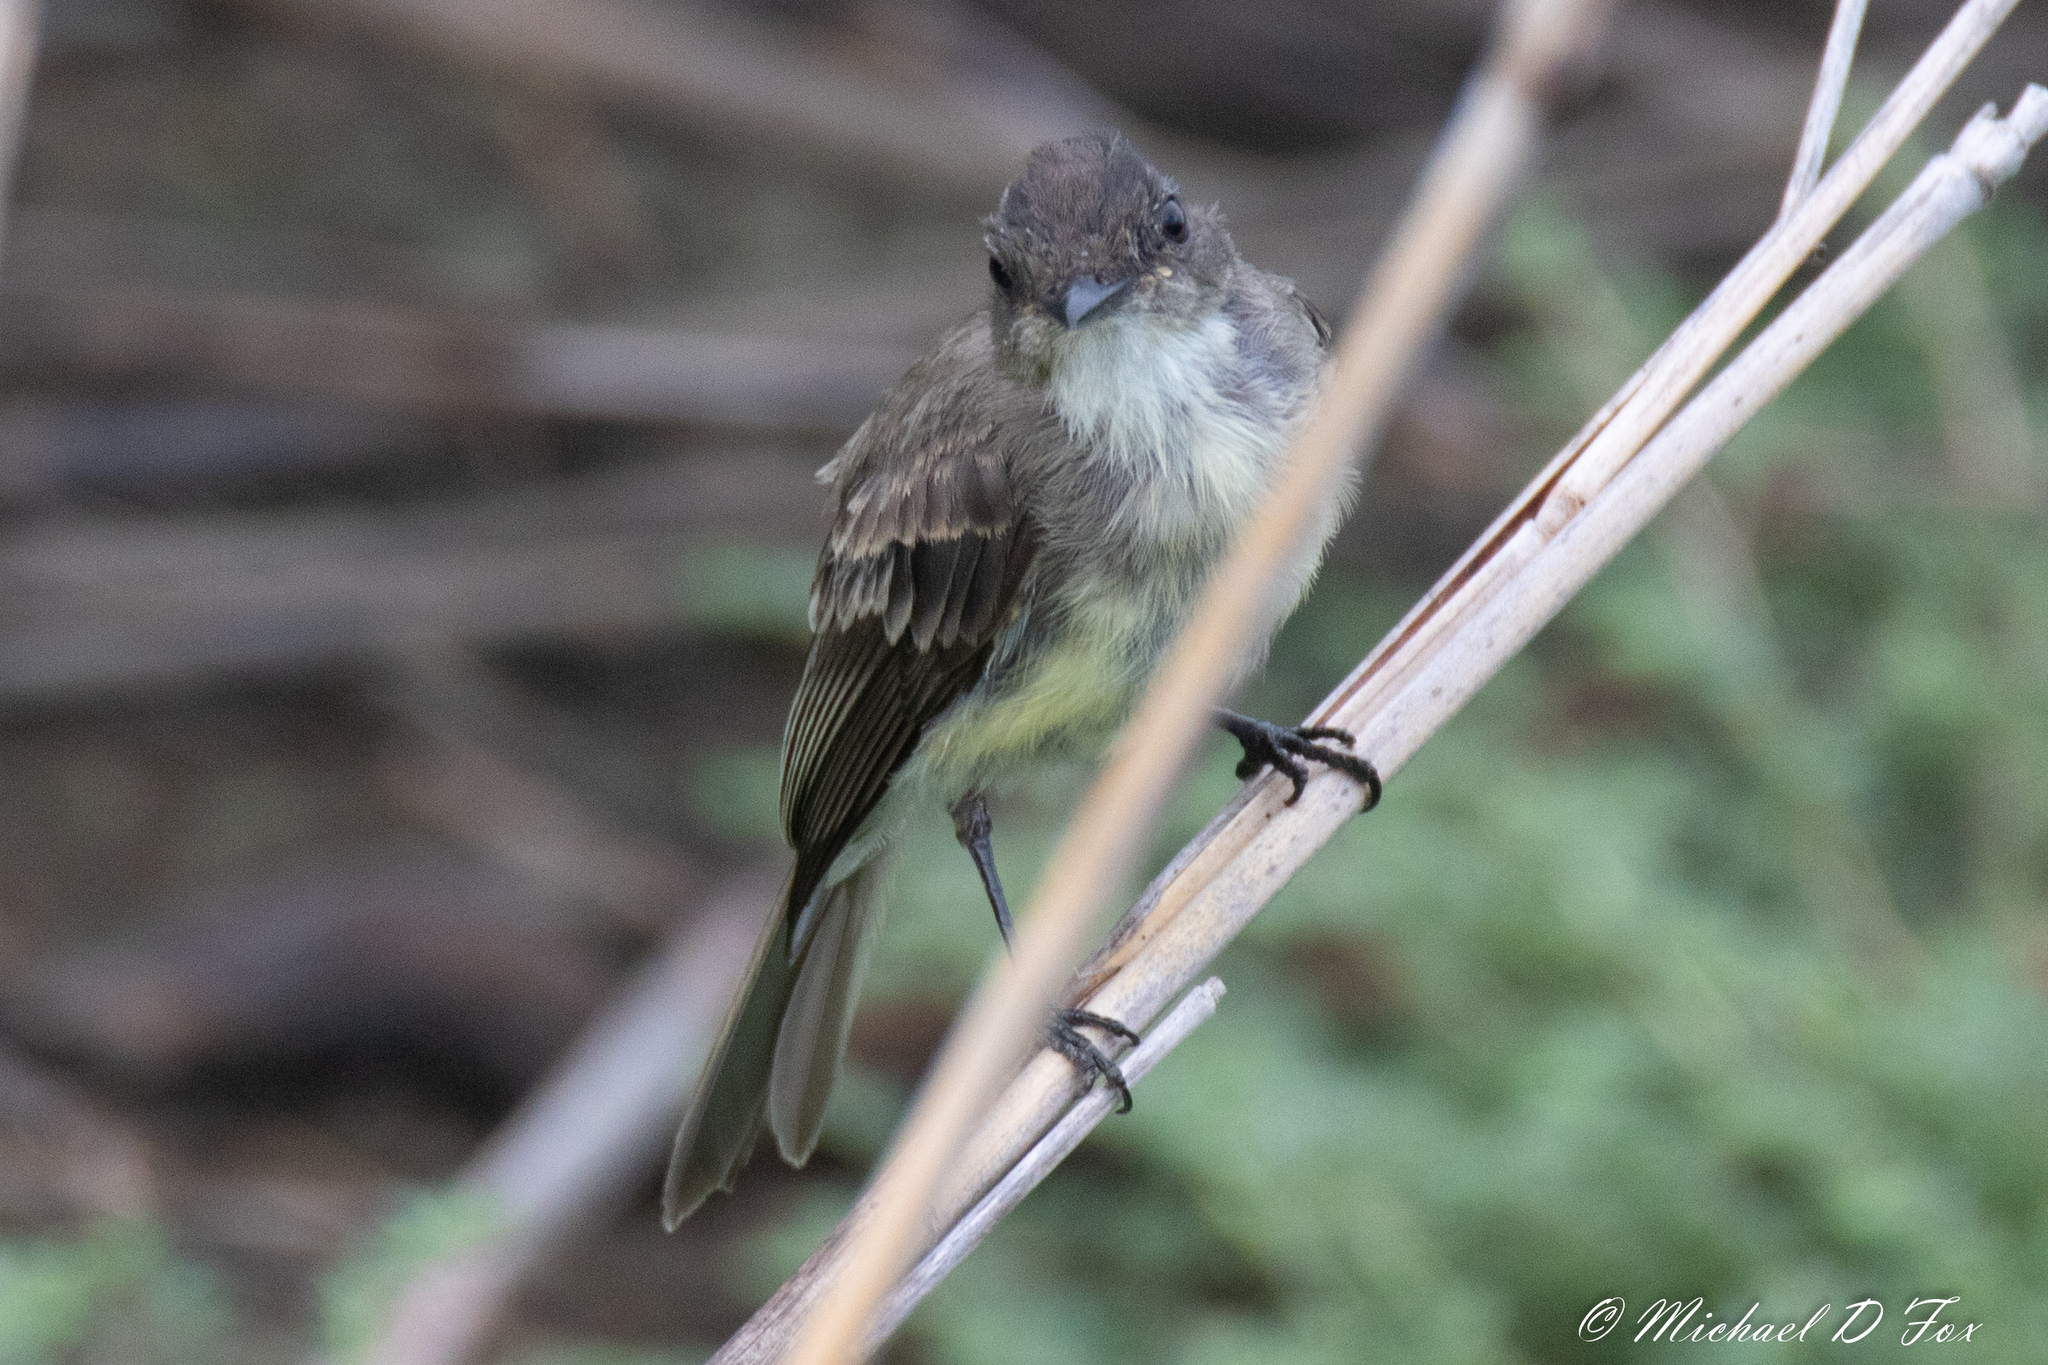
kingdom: Animalia
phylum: Chordata
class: Aves
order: Passeriformes
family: Tyrannidae
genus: Sayornis
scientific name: Sayornis phoebe
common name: Eastern phoebe
